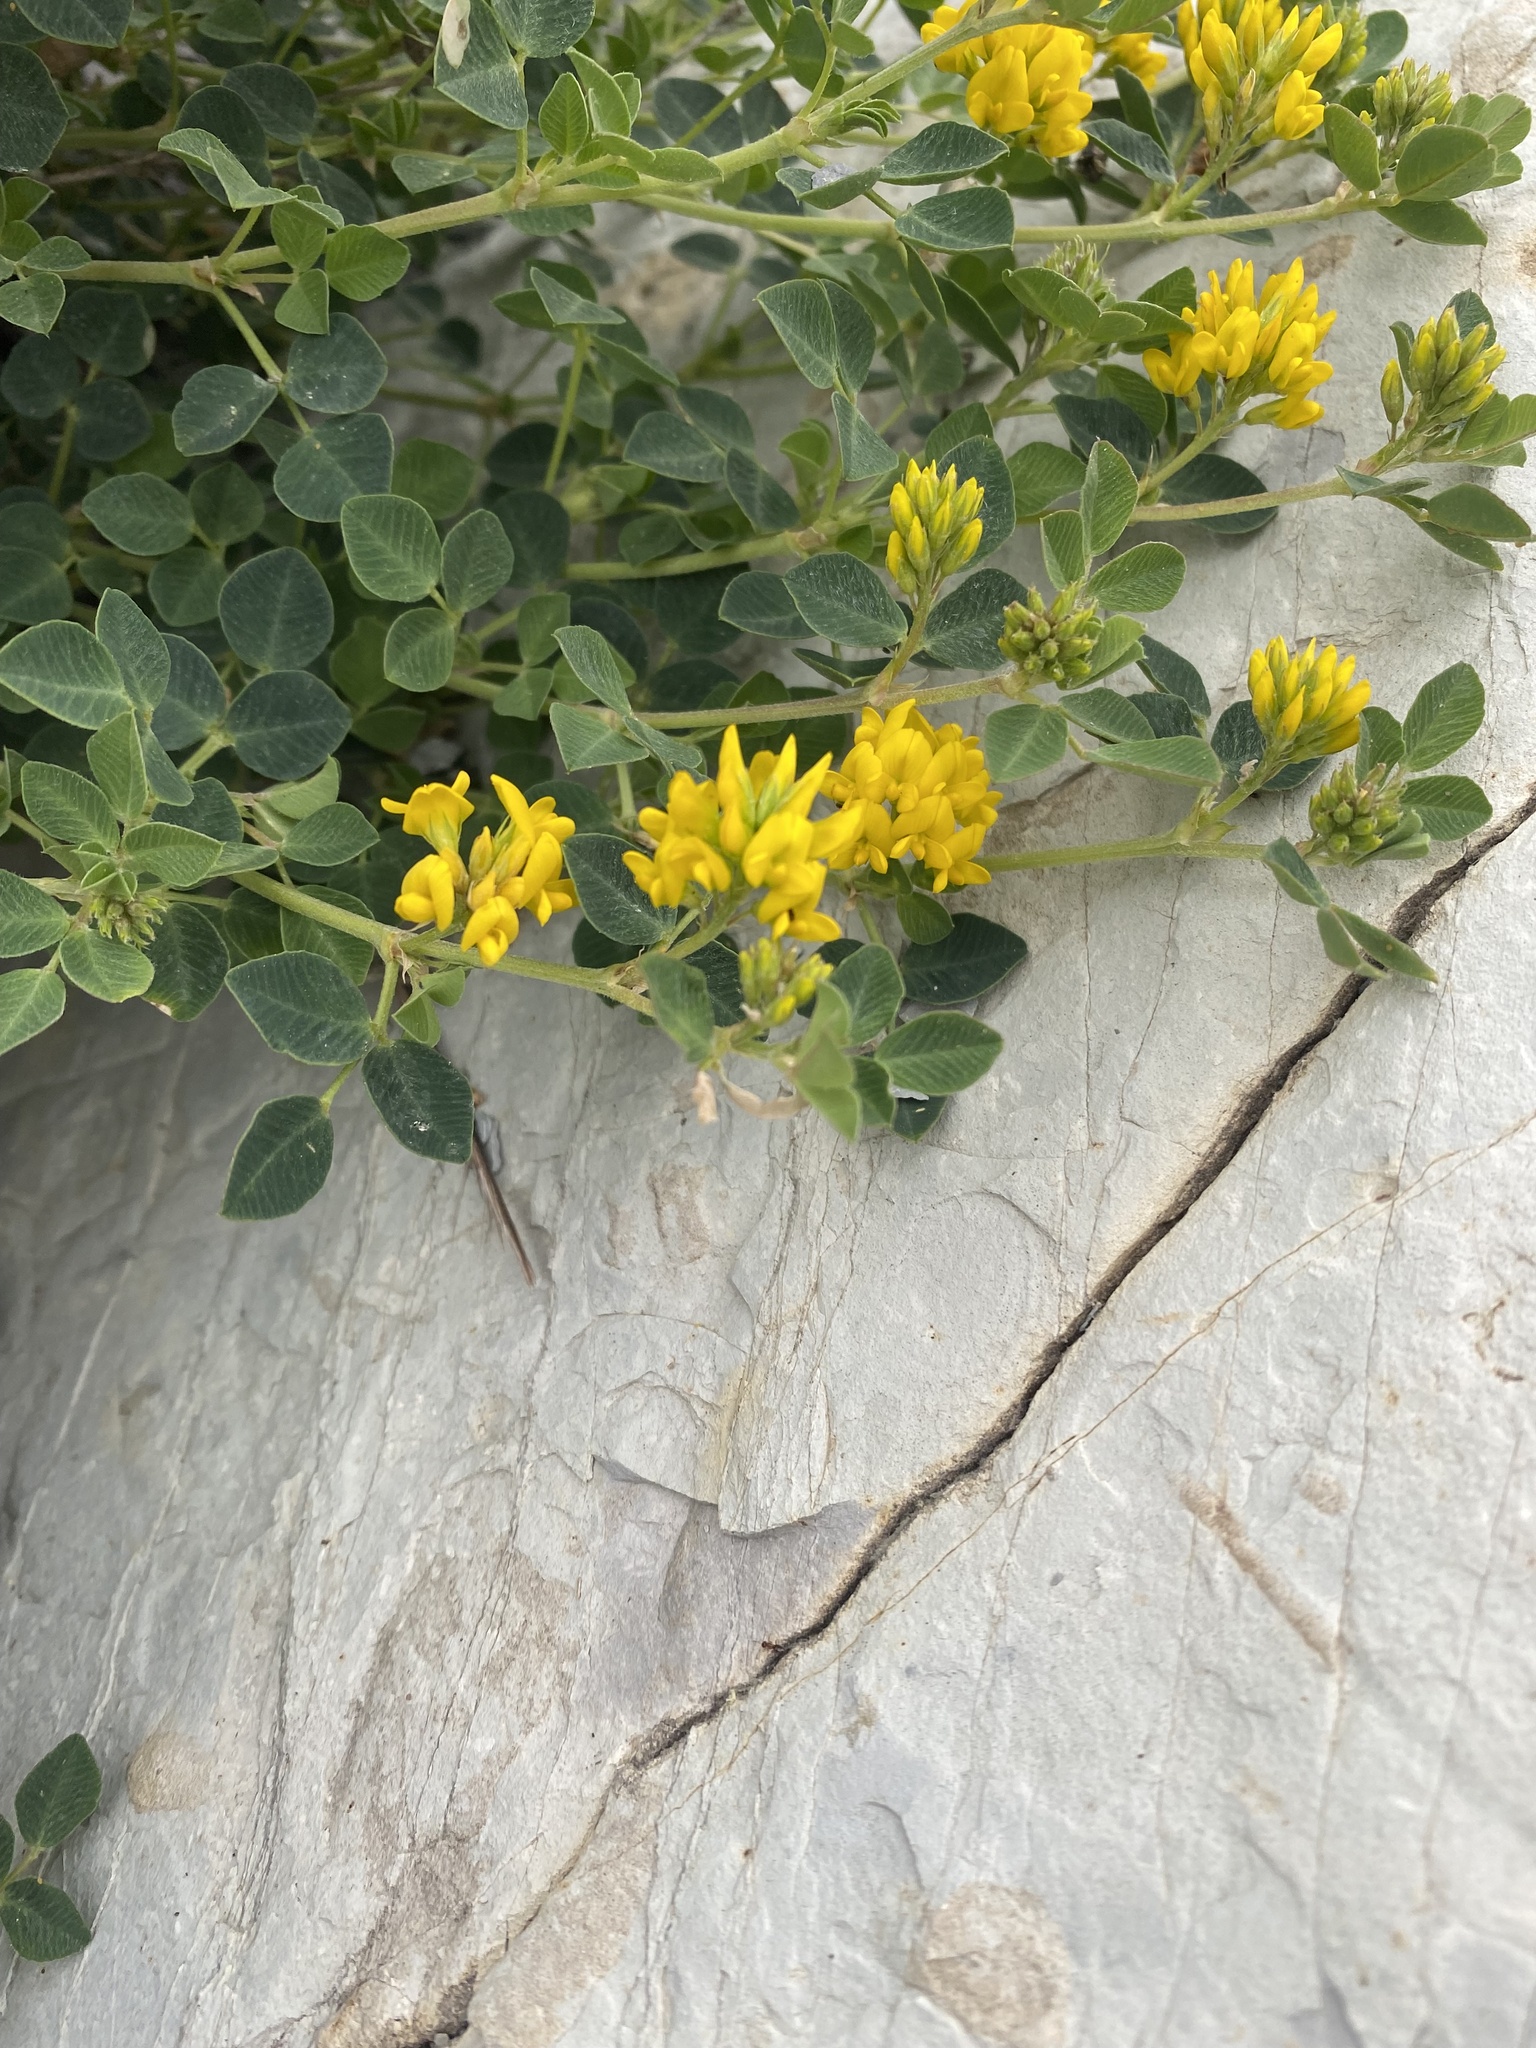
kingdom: Plantae
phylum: Tracheophyta
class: Magnoliopsida
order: Fabales
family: Fabaceae
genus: Medicago
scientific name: Medicago cretacea
